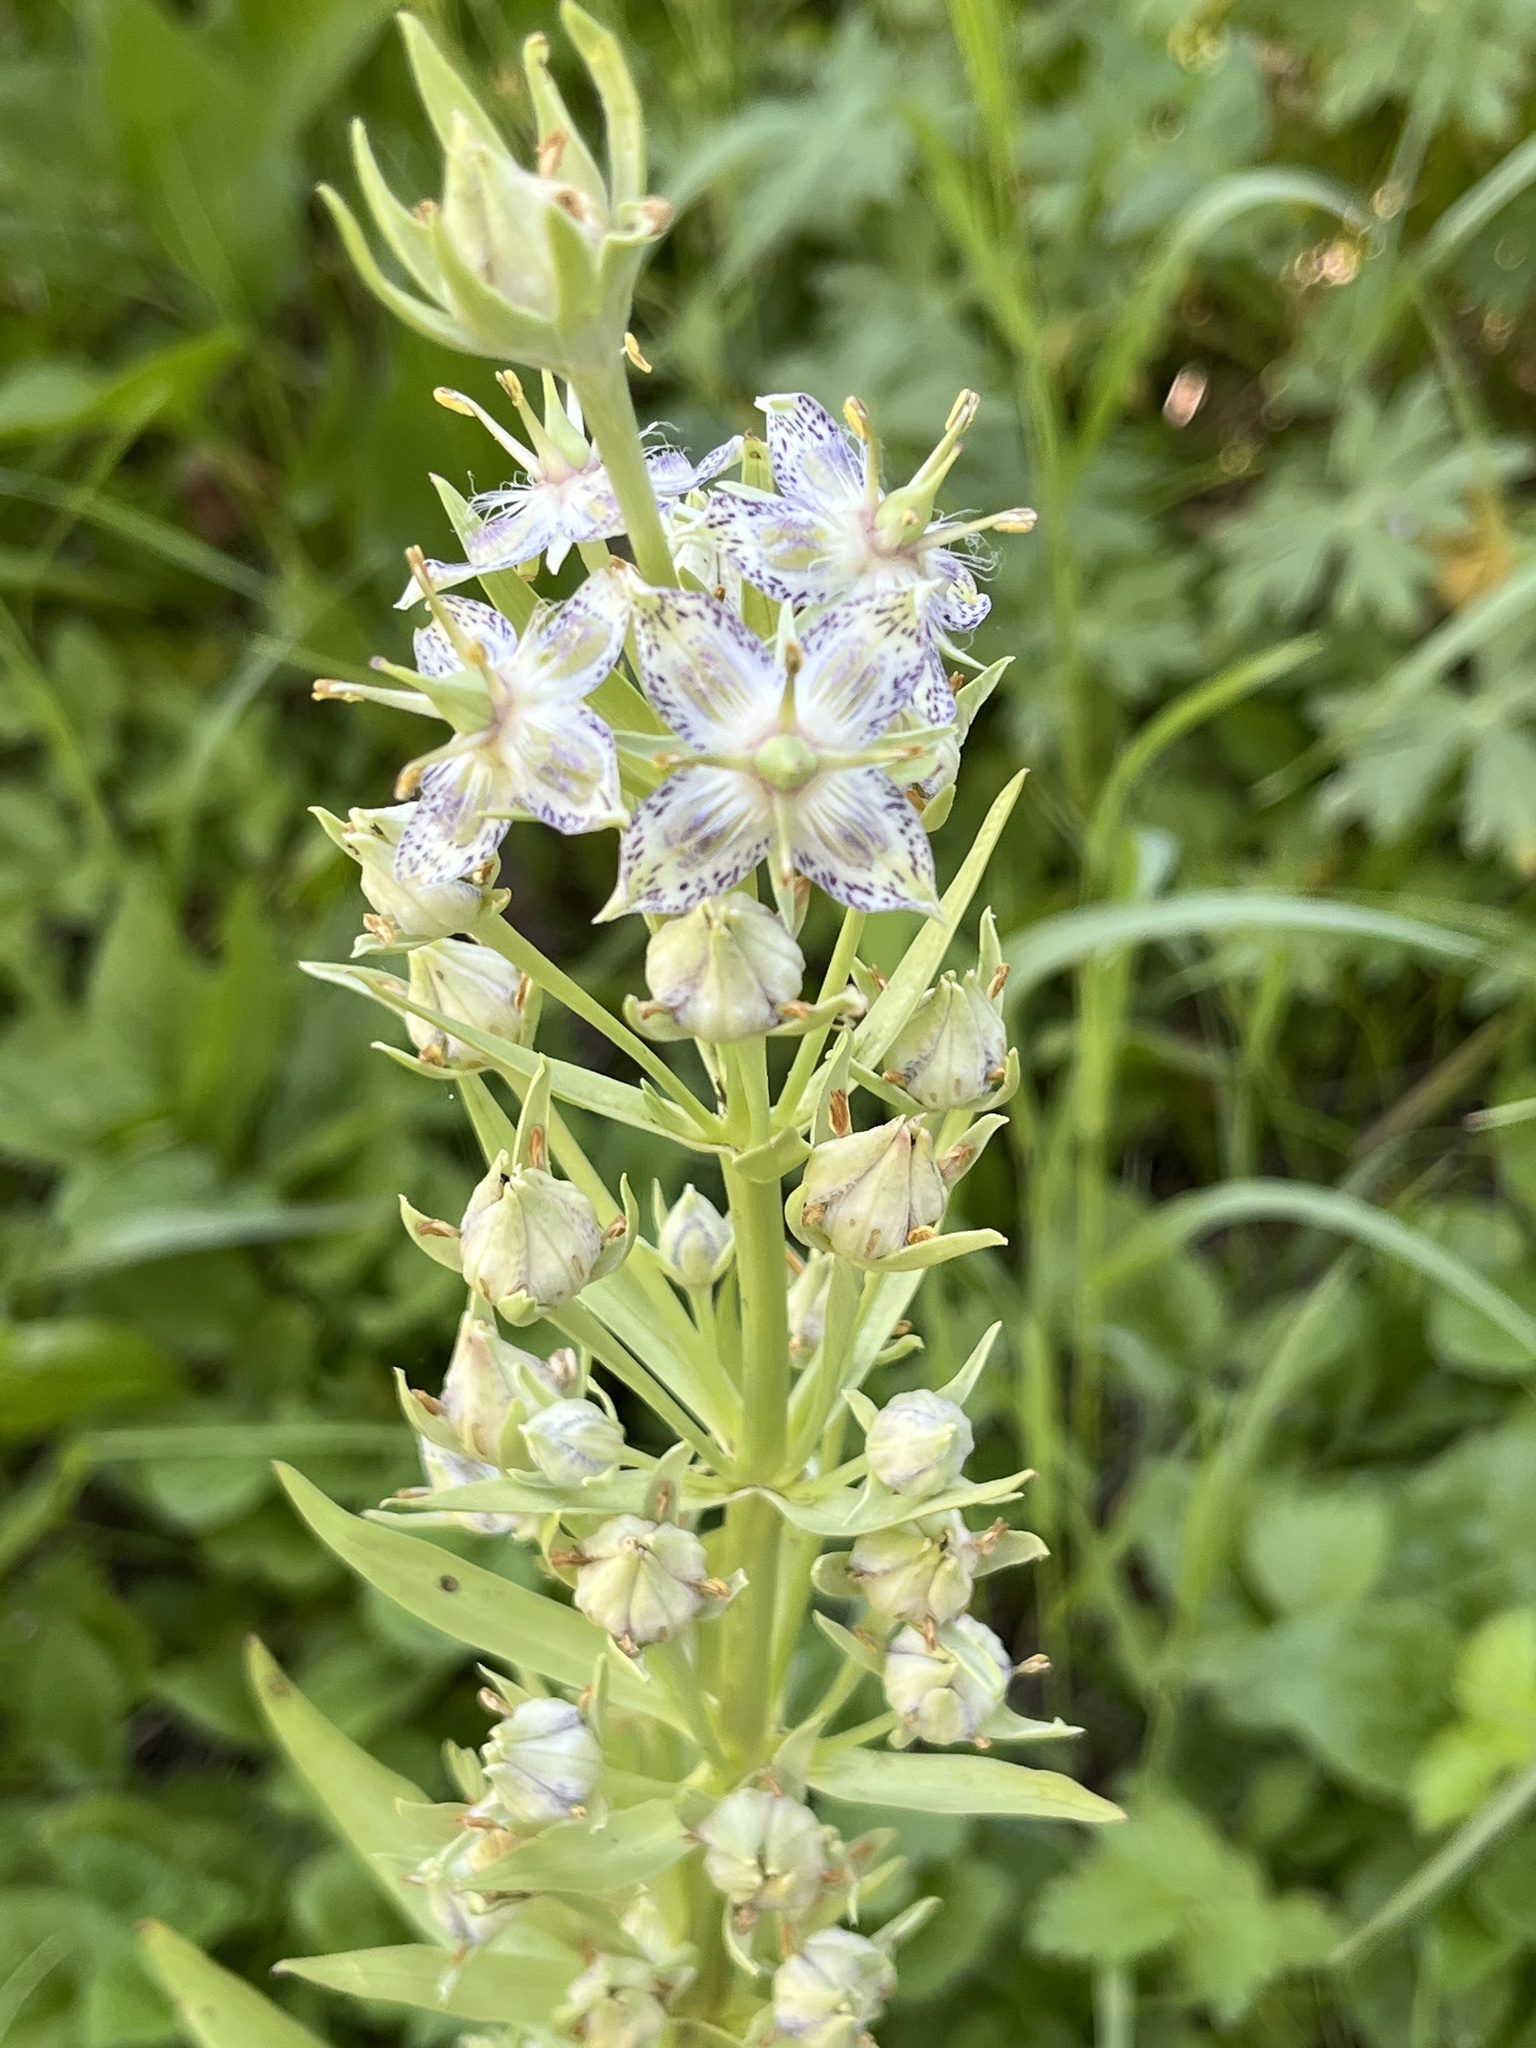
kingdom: Plantae
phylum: Tracheophyta
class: Magnoliopsida
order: Gentianales
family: Gentianaceae
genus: Frasera
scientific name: Frasera speciosa
